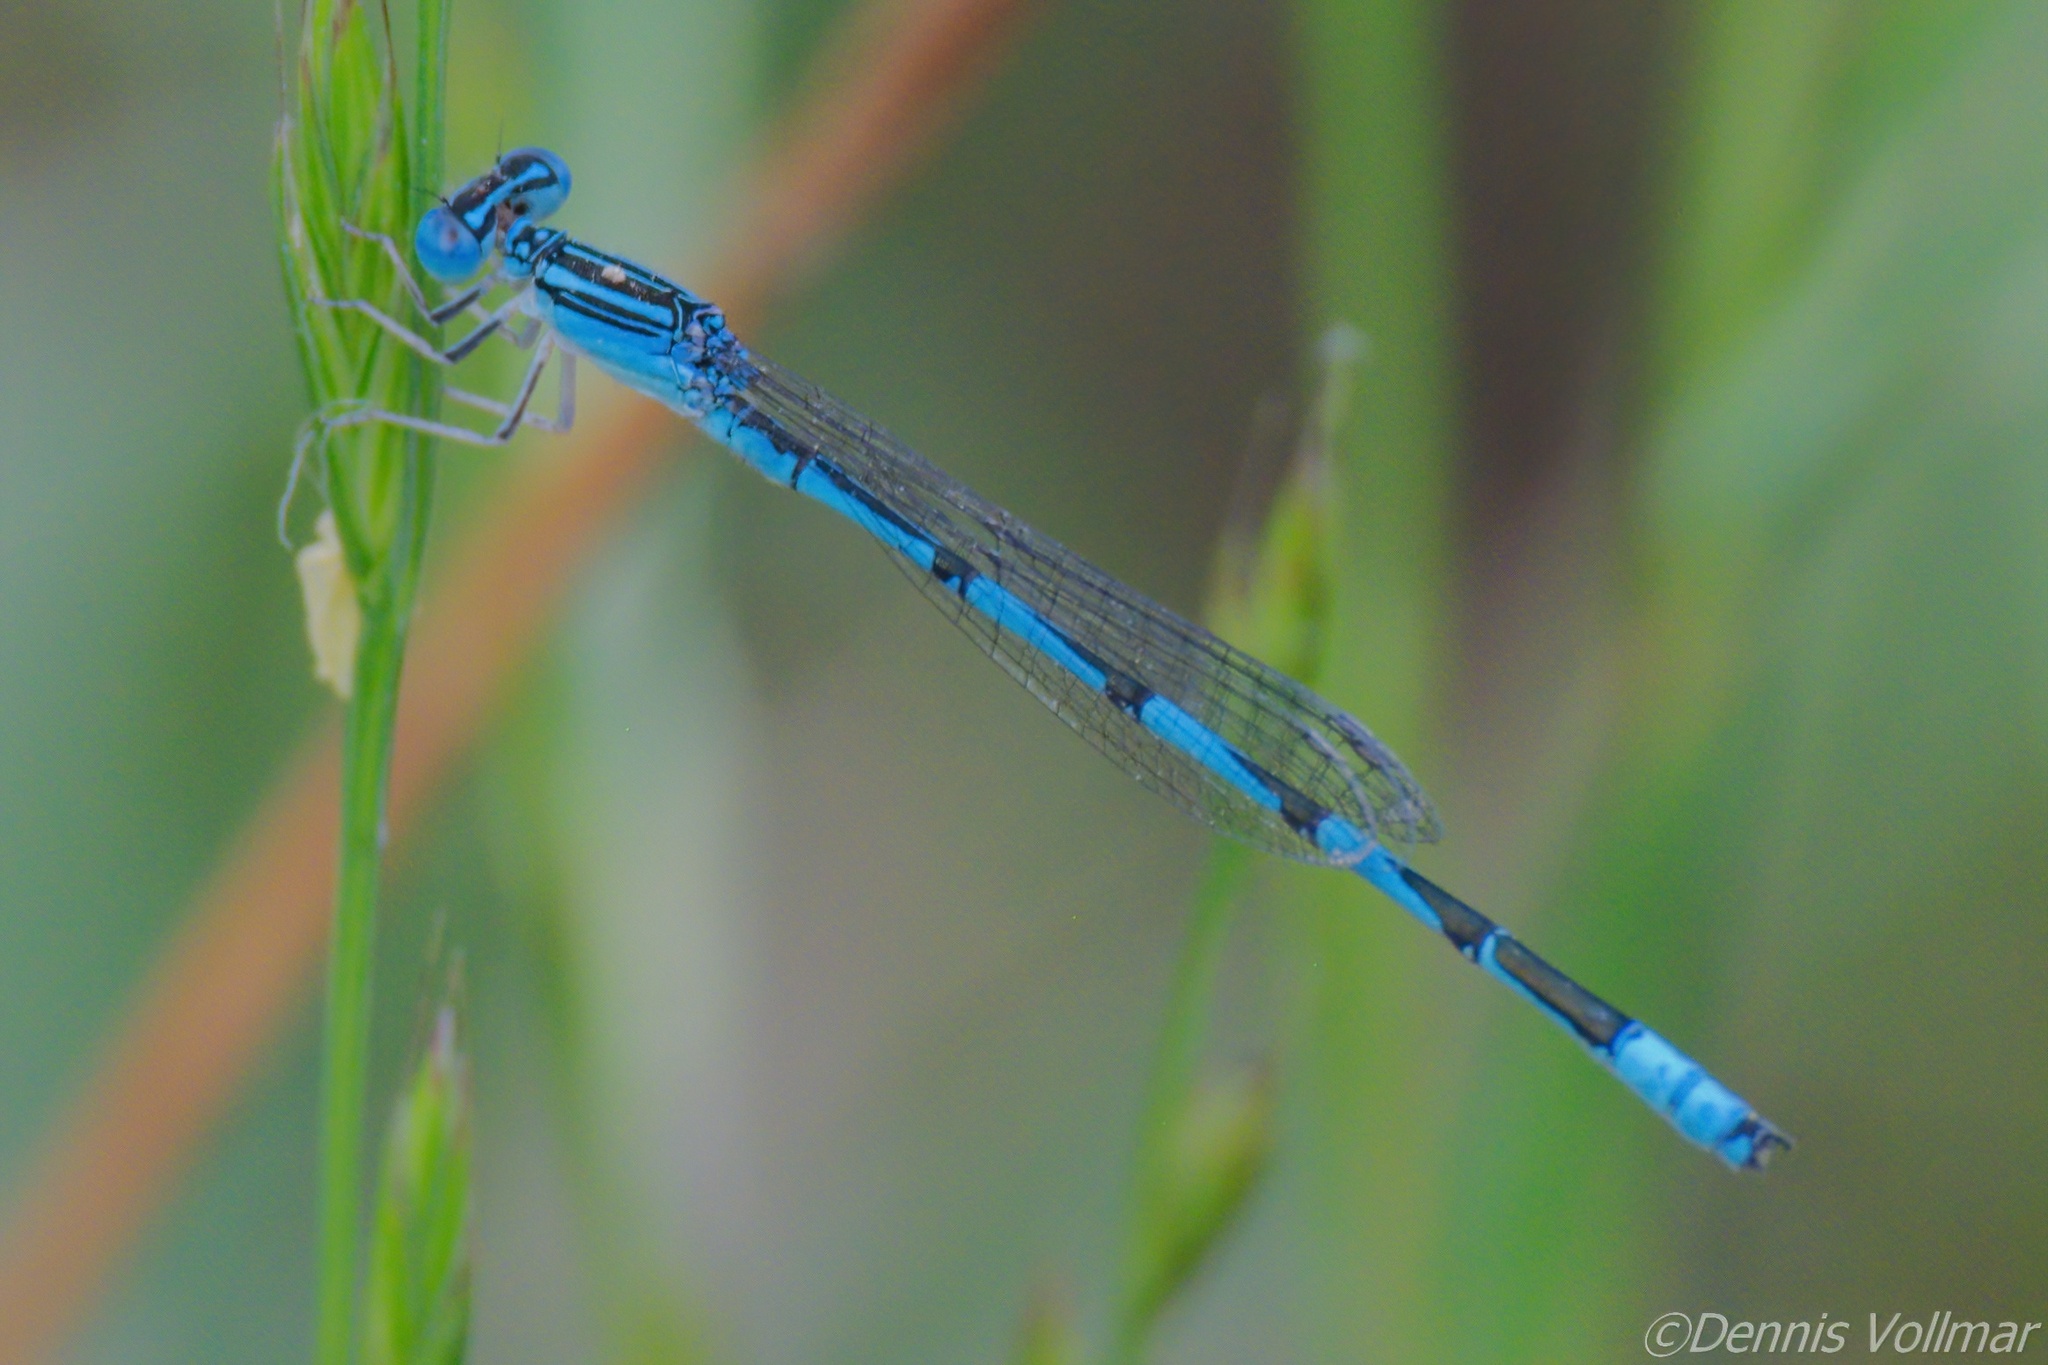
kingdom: Animalia
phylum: Arthropoda
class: Insecta
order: Odonata
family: Coenagrionidae
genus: Enallagma
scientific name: Enallagma basidens
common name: Double-striped bluet
